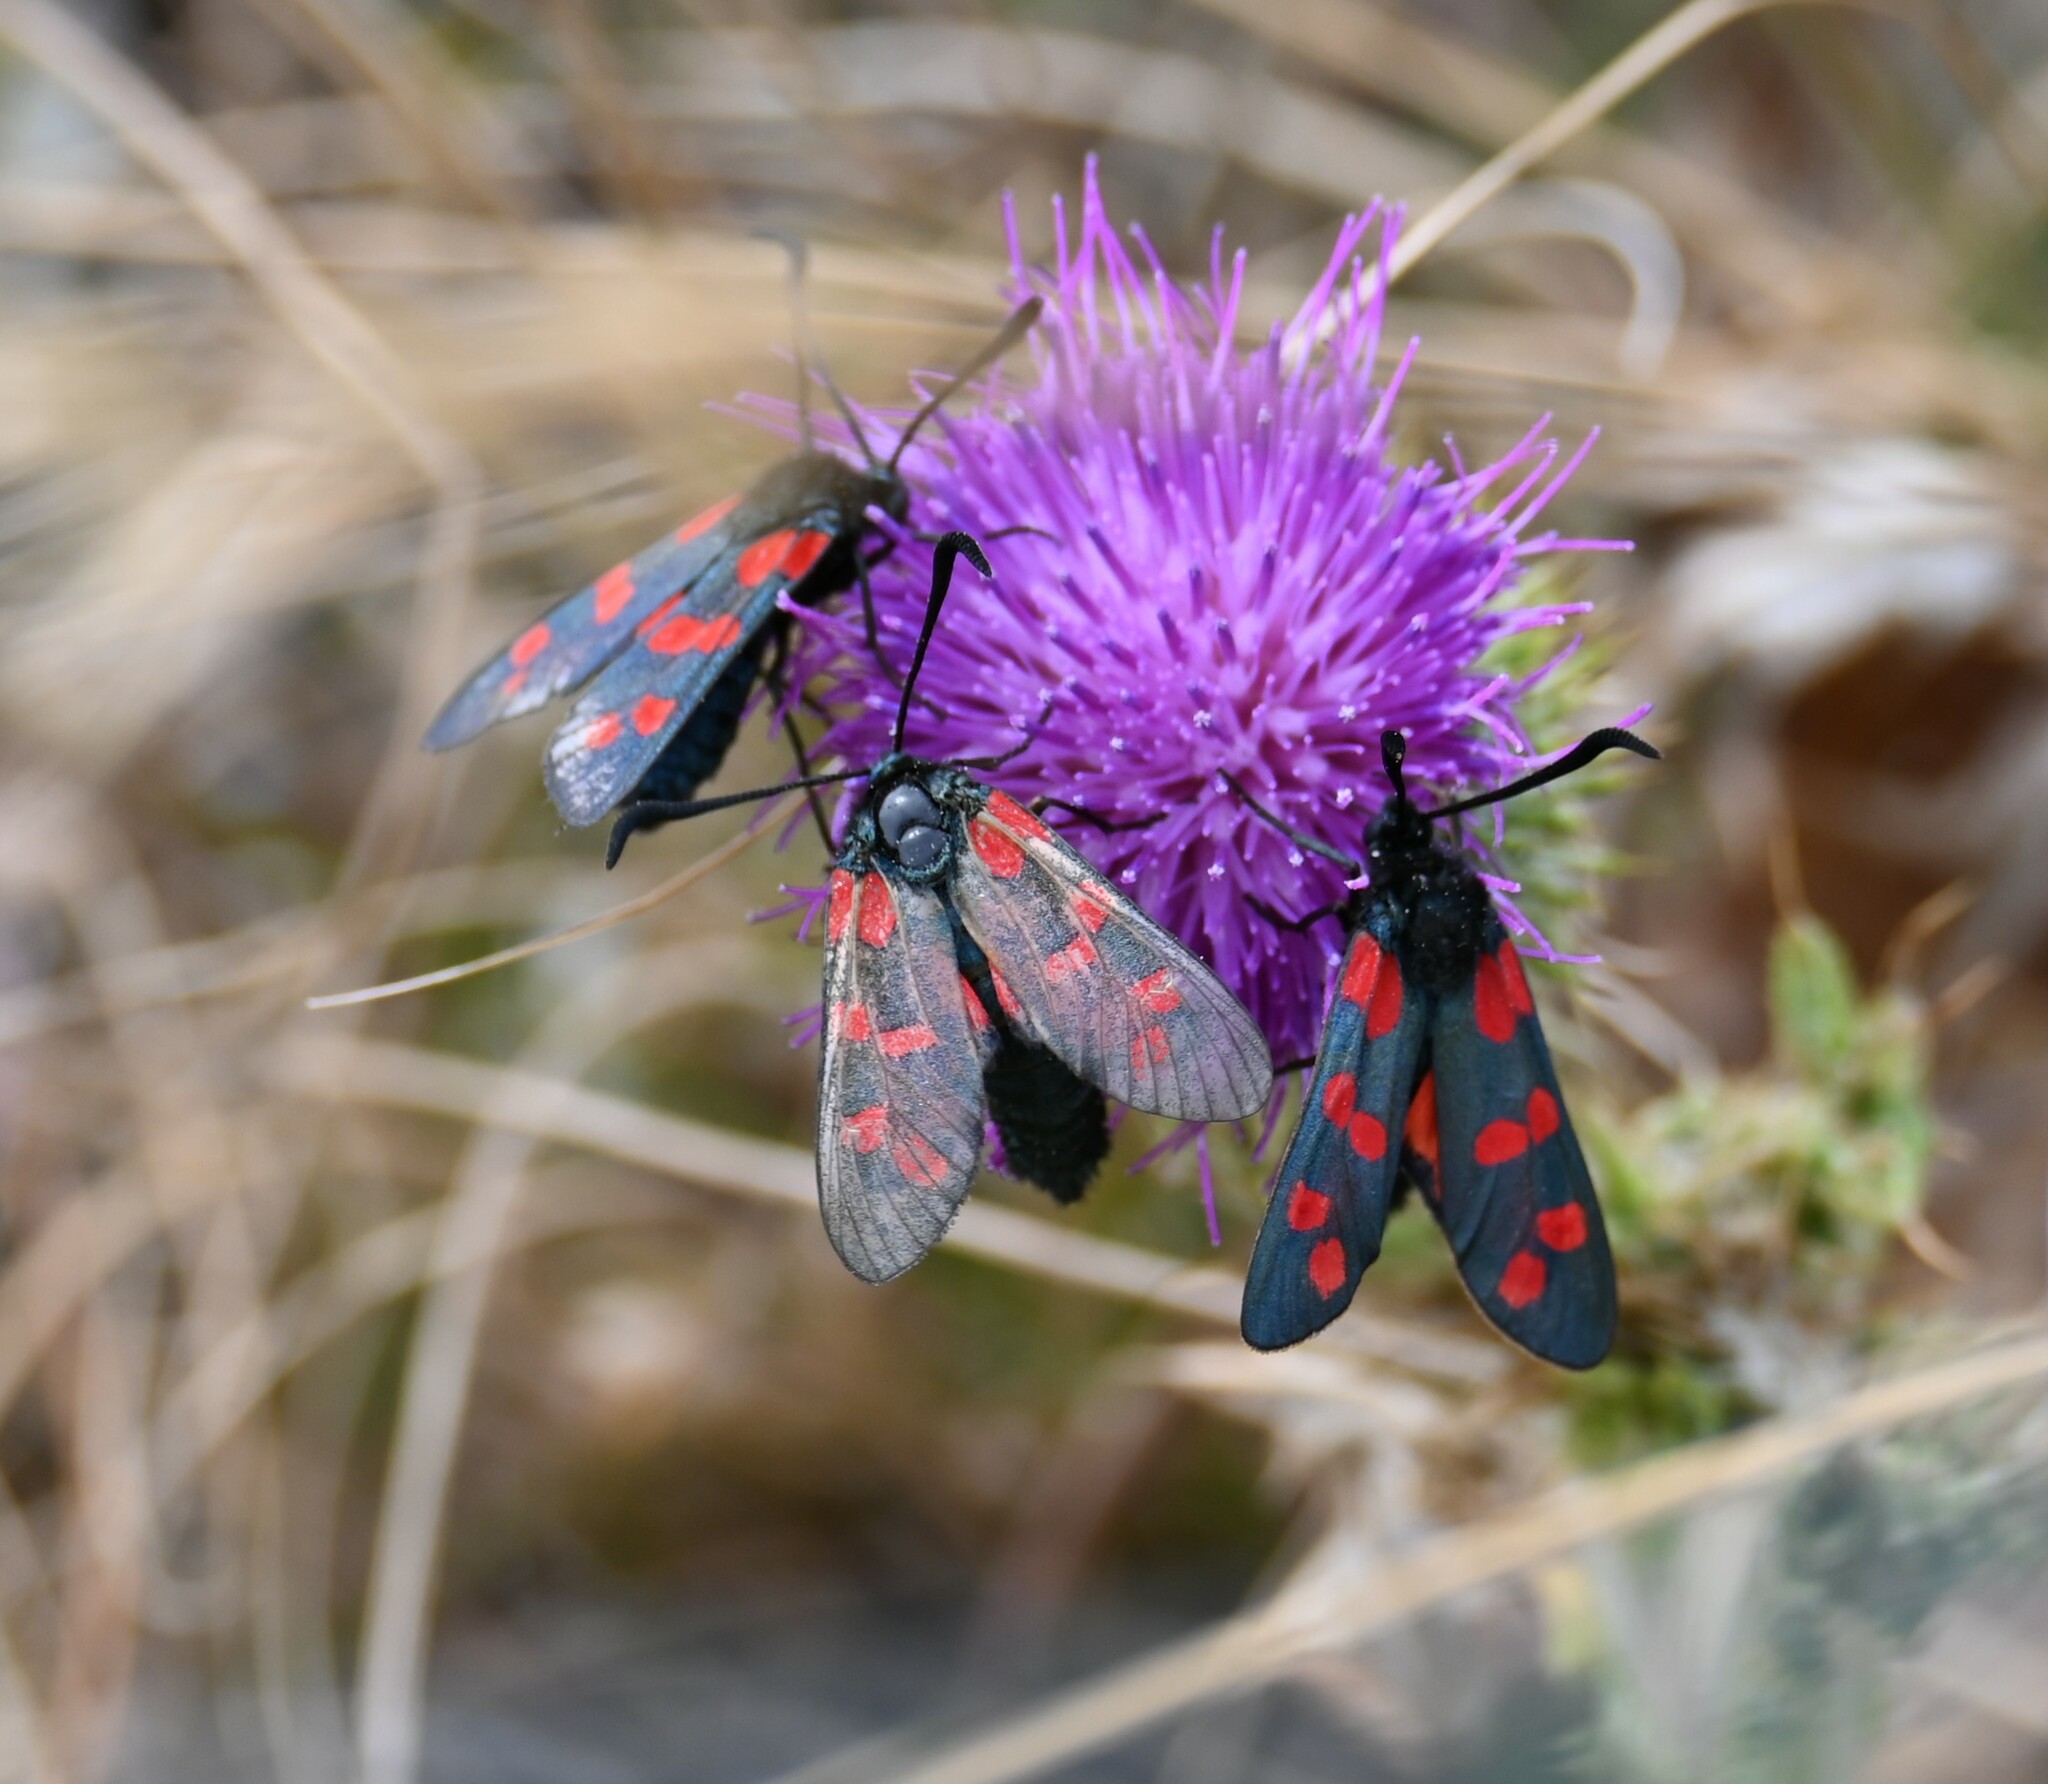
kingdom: Animalia
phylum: Arthropoda
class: Insecta
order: Lepidoptera
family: Zygaenidae
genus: Zygaena
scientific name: Zygaena filipendulae
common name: Six-spot burnet
